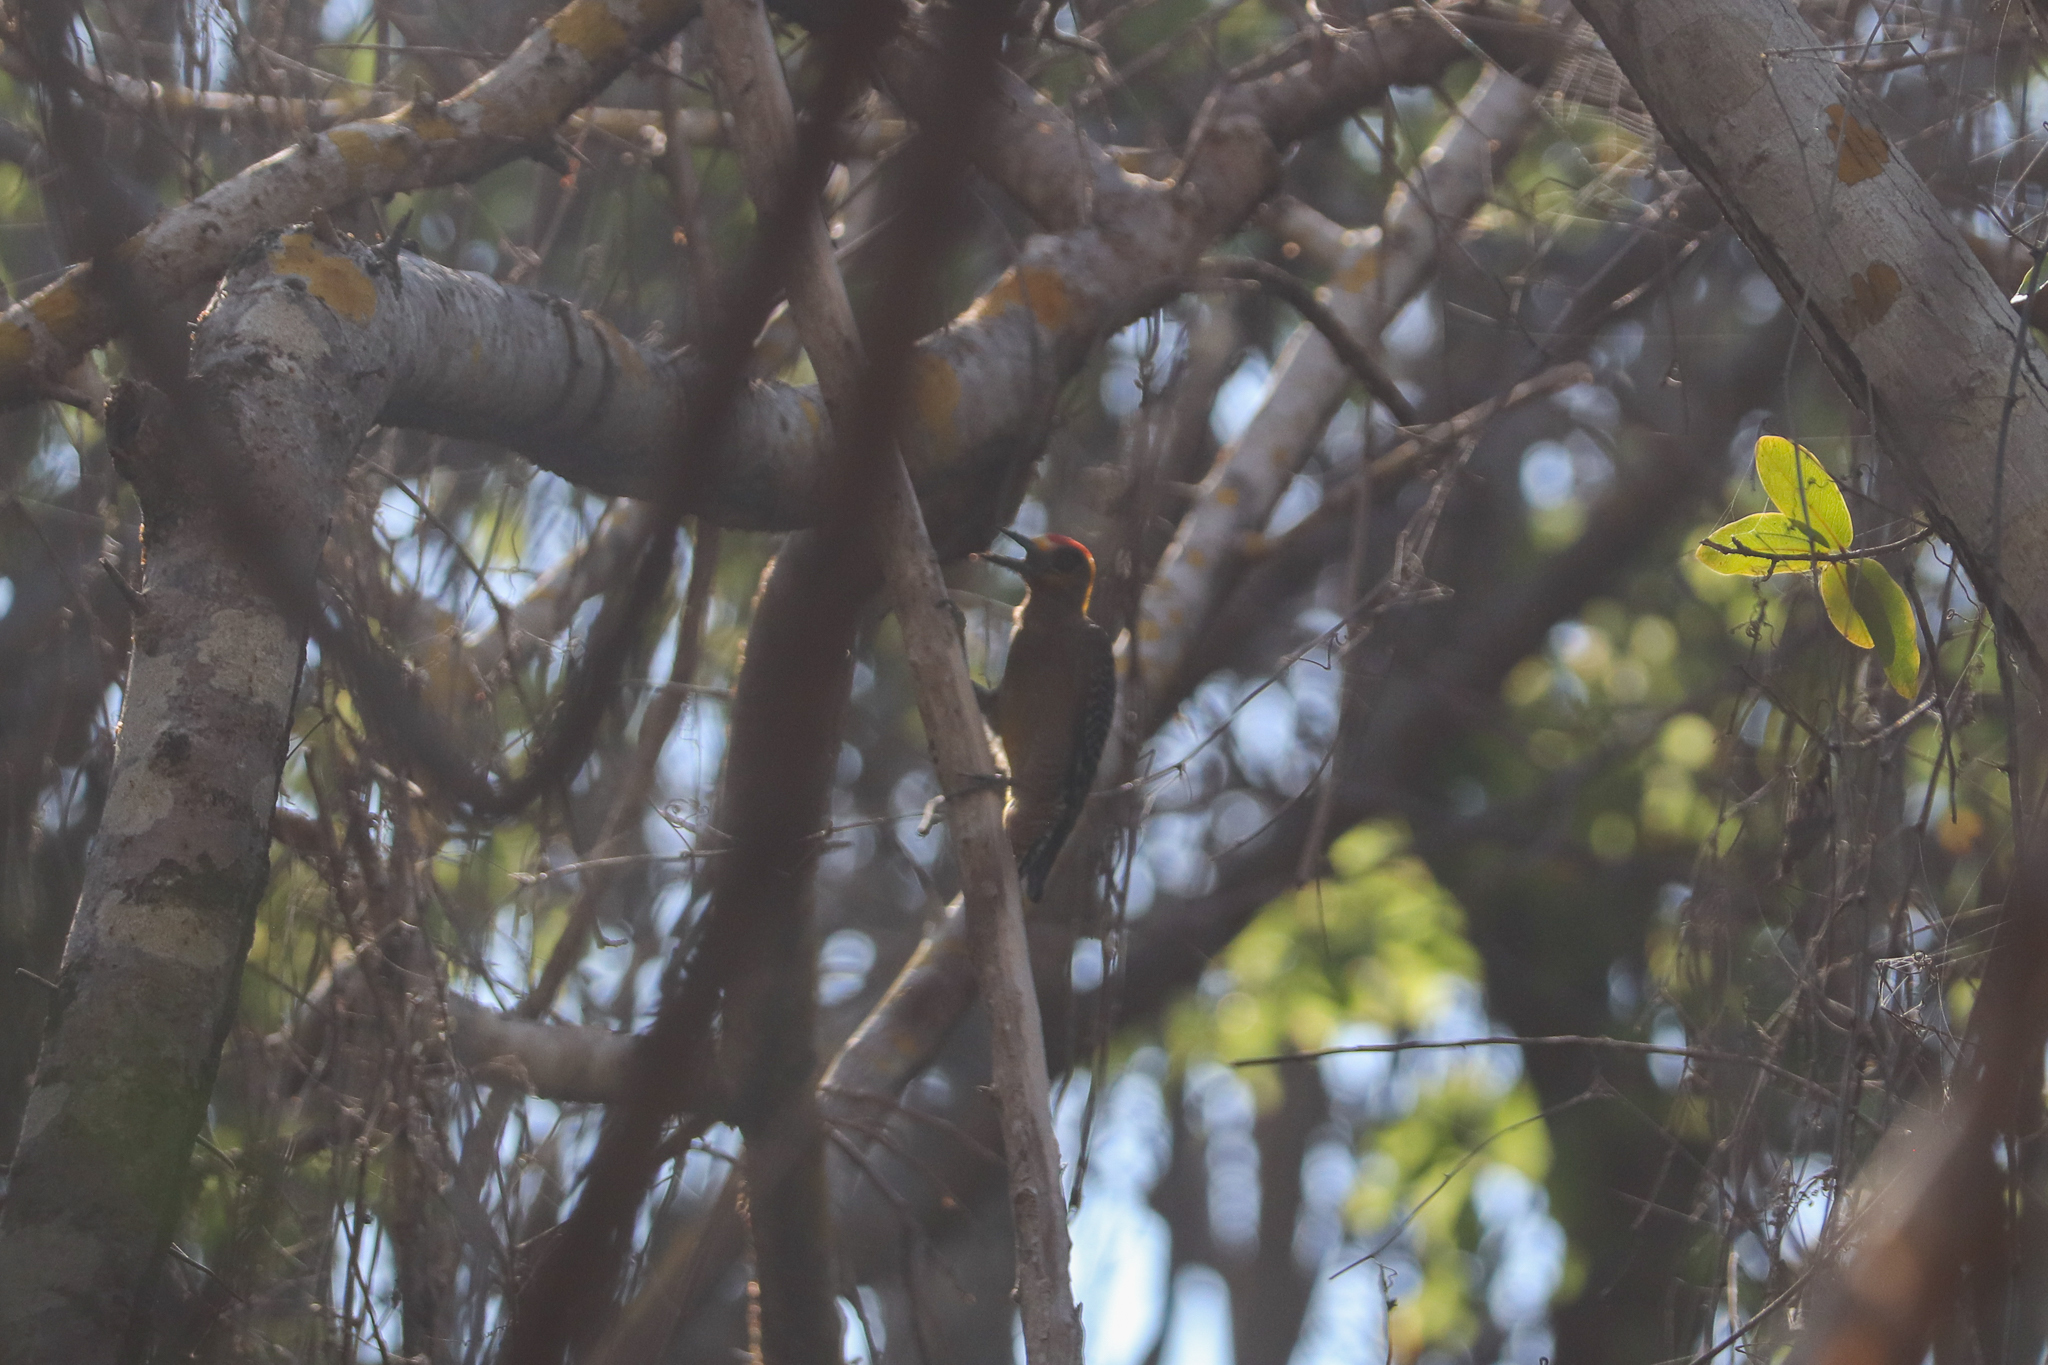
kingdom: Animalia
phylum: Chordata
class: Aves
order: Piciformes
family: Picidae
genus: Melanerpes
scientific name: Melanerpes chrysogenys
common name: Golden-cheeked woodpecker
